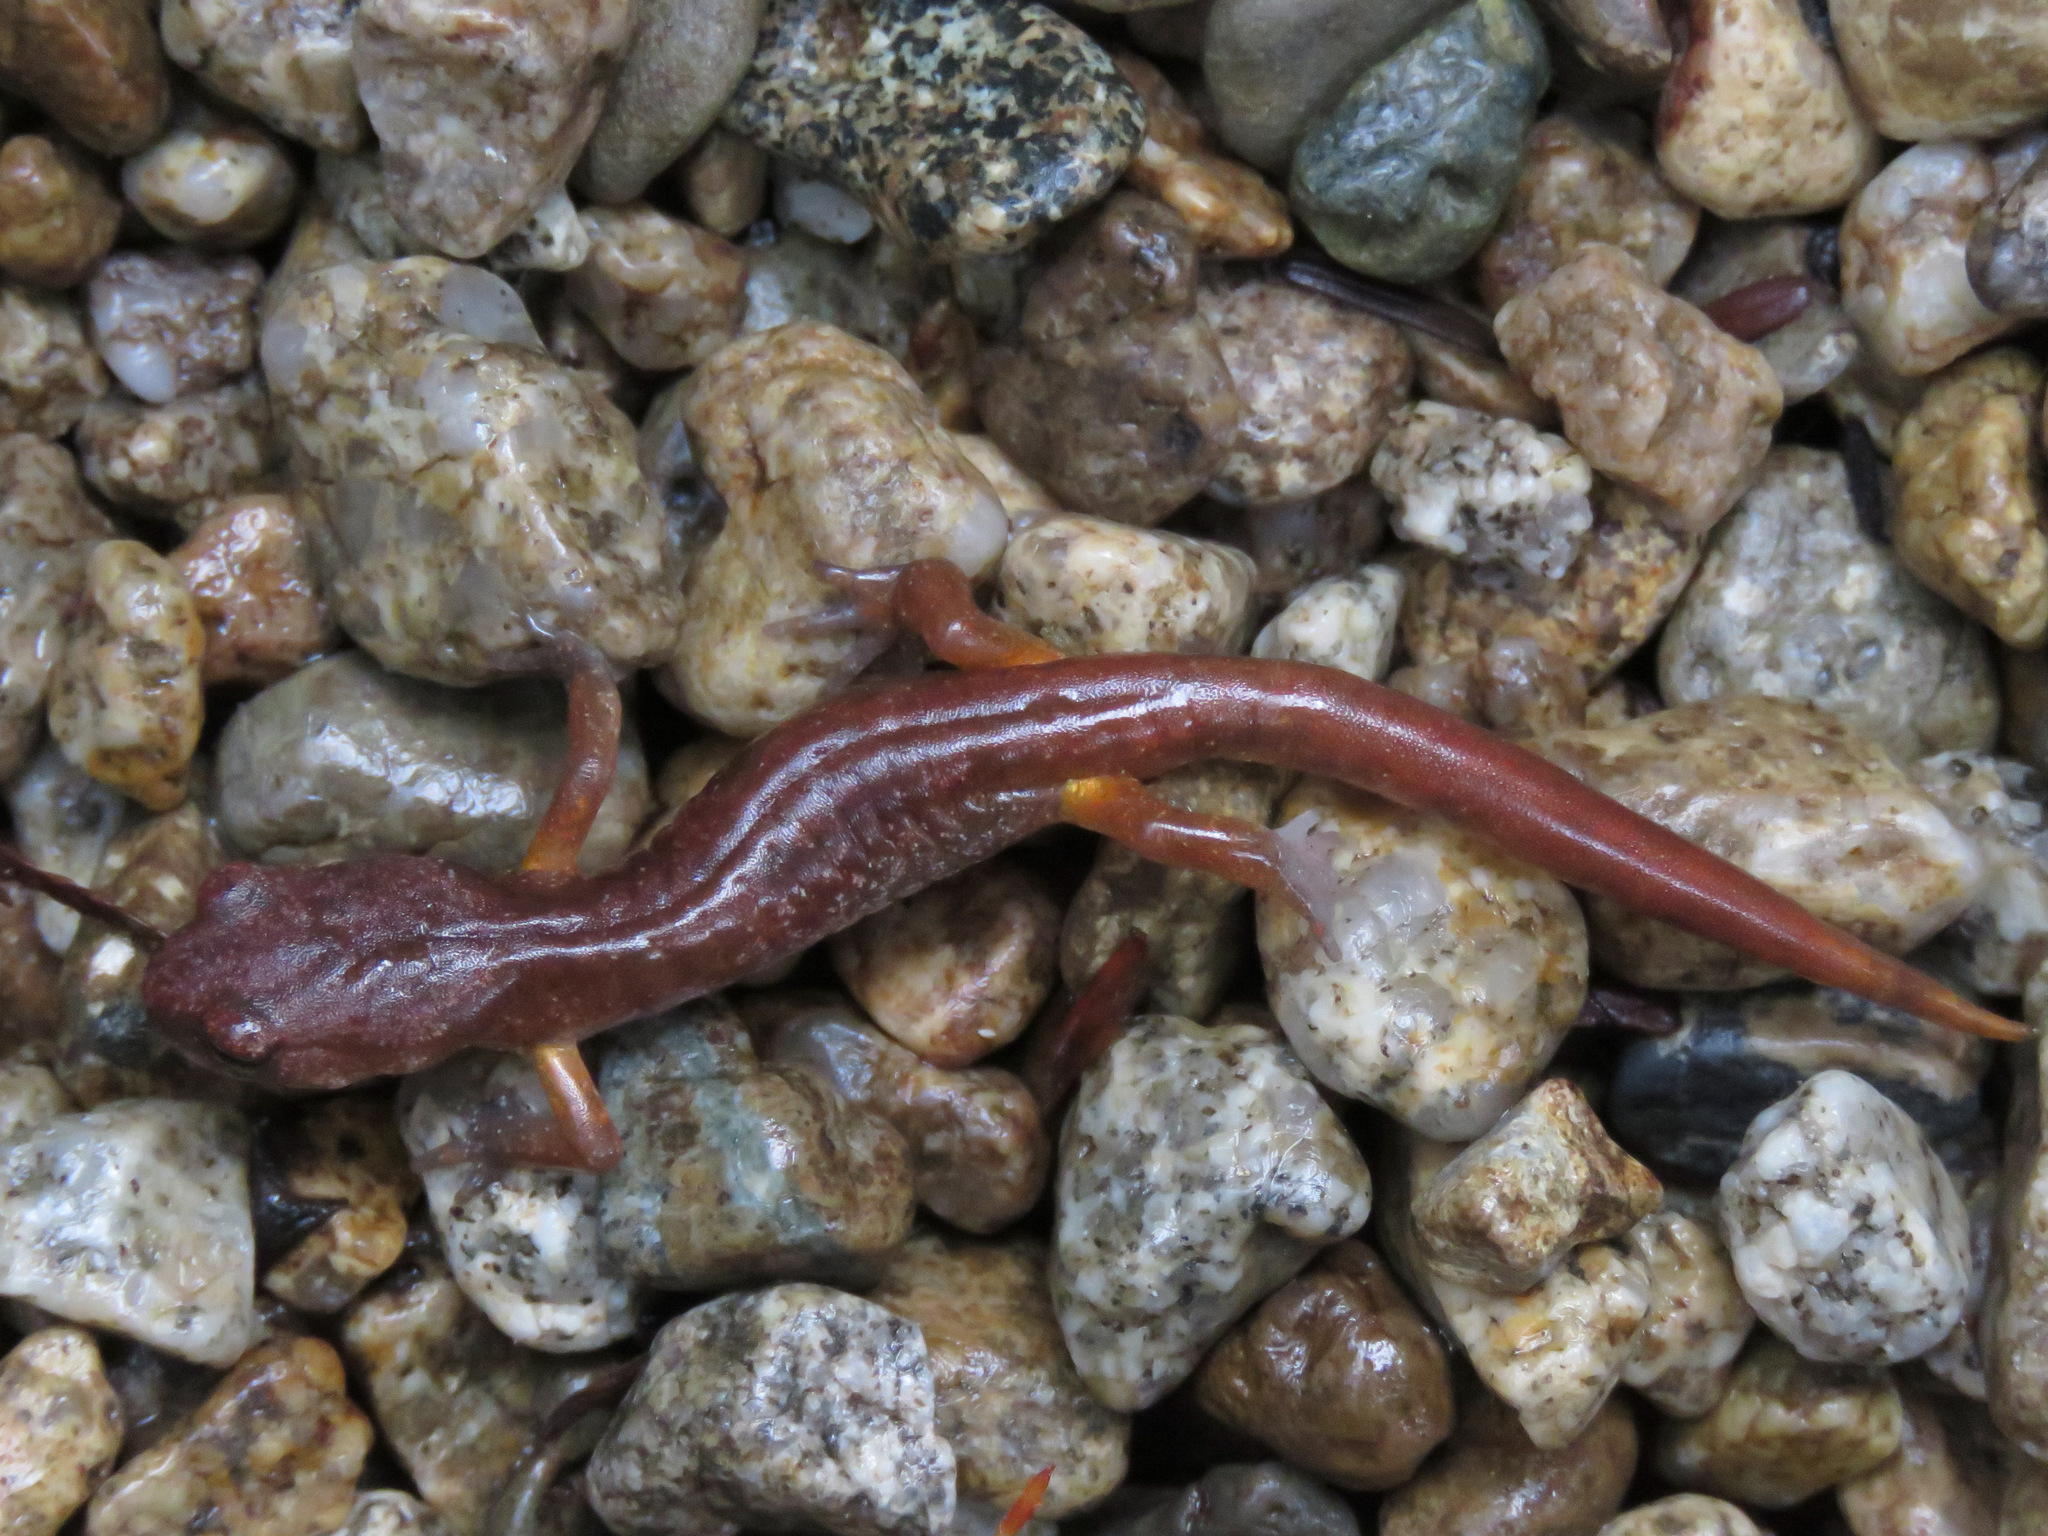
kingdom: Animalia
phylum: Chordata
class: Amphibia
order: Caudata
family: Plethodontidae
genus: Ensatina
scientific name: Ensatina eschscholtzii
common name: Ensatina
